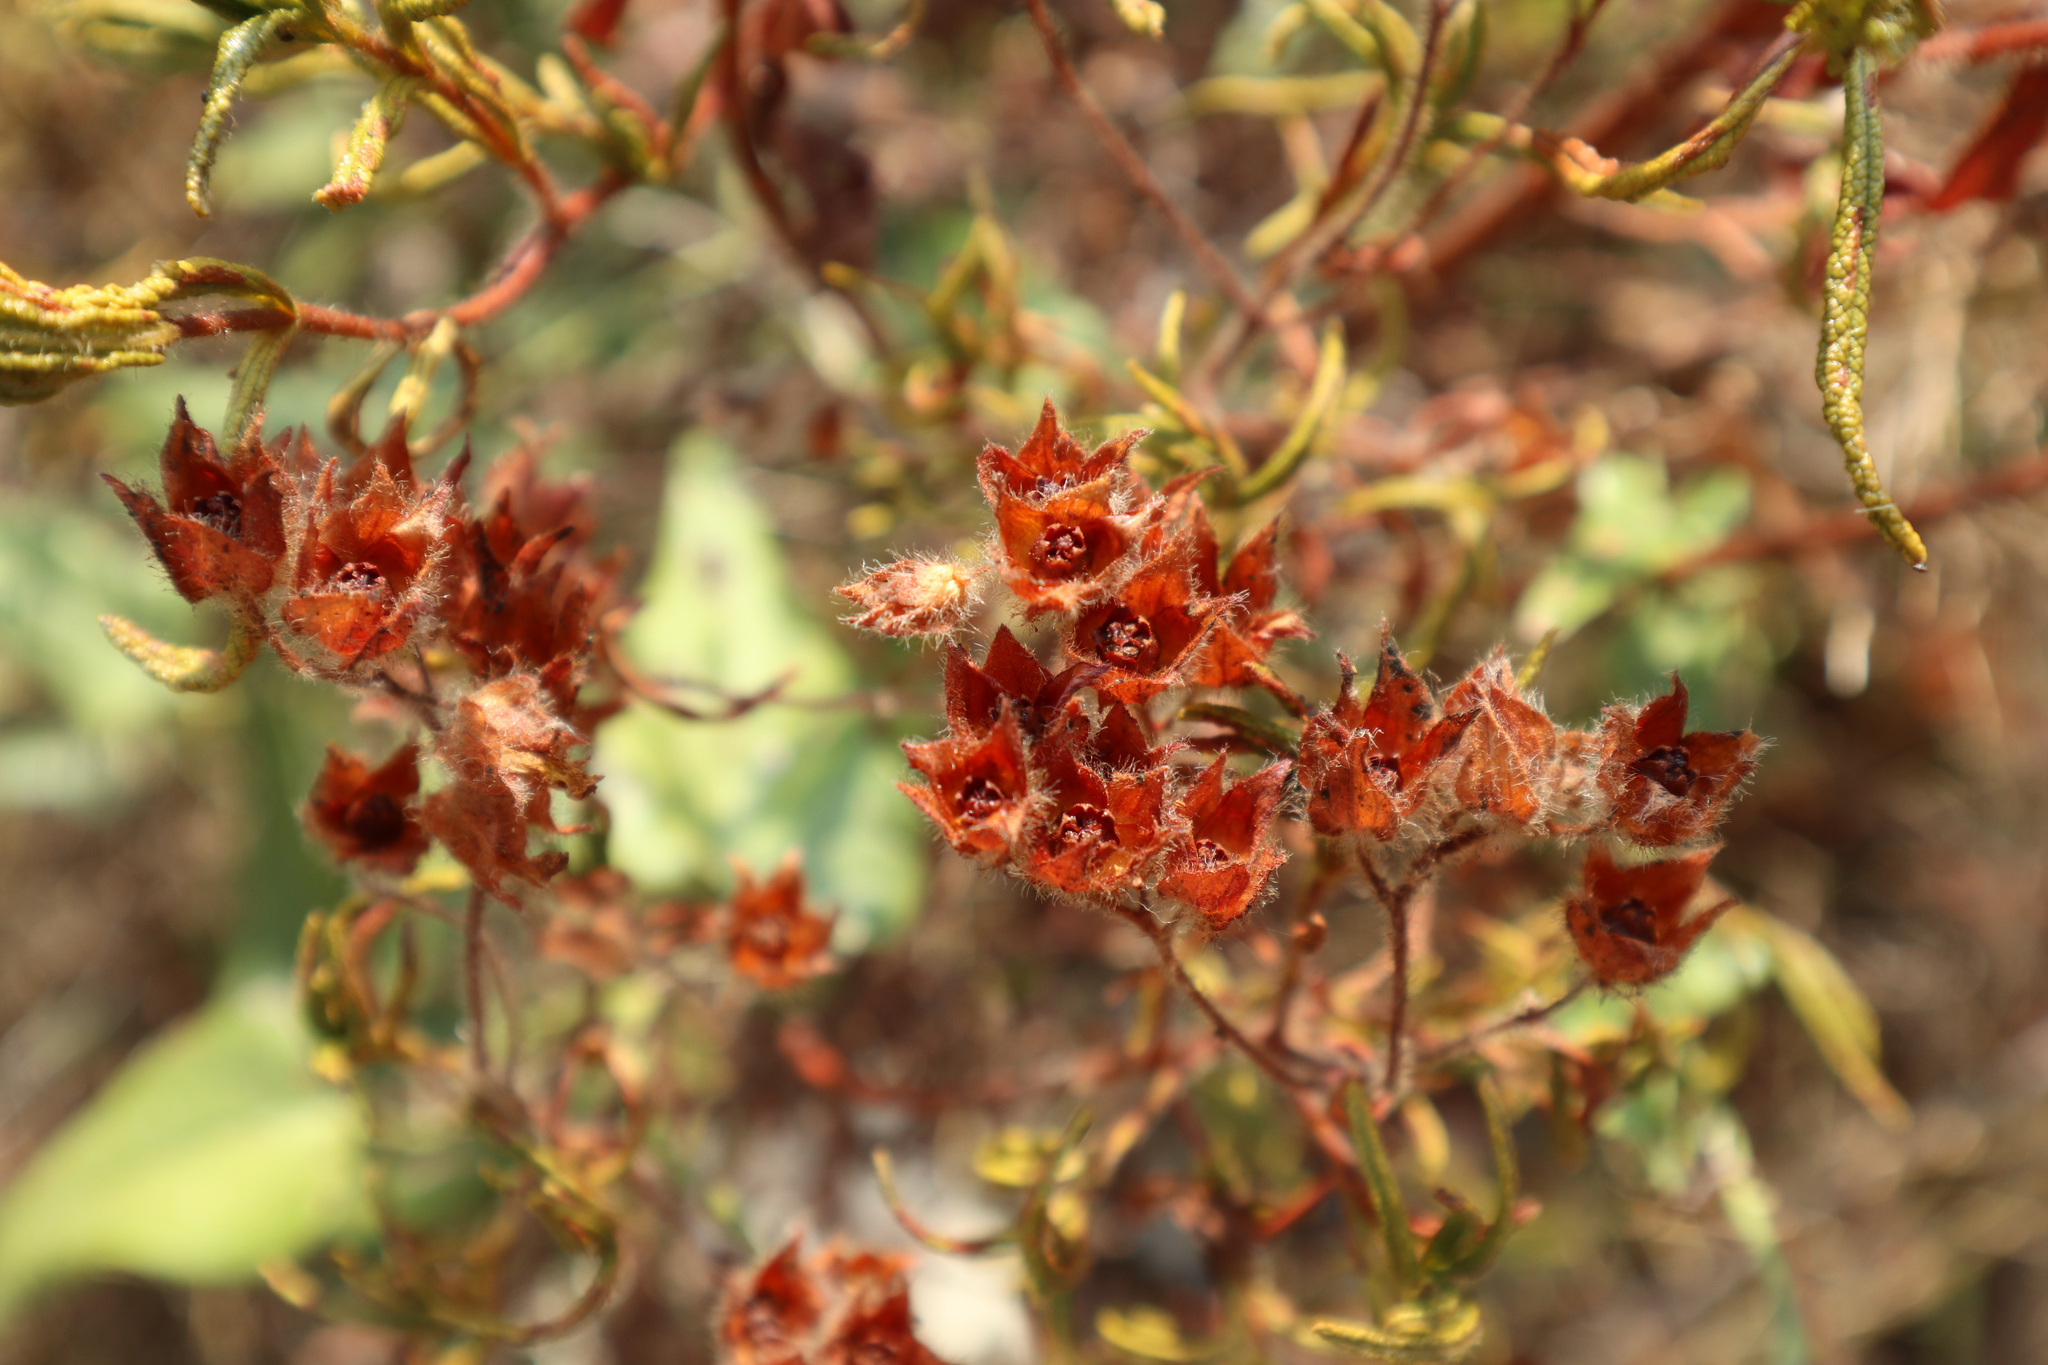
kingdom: Plantae
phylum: Tracheophyta
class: Magnoliopsida
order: Malvales
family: Cistaceae
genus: Cistus
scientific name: Cistus monspeliensis
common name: Montpelier cistus
